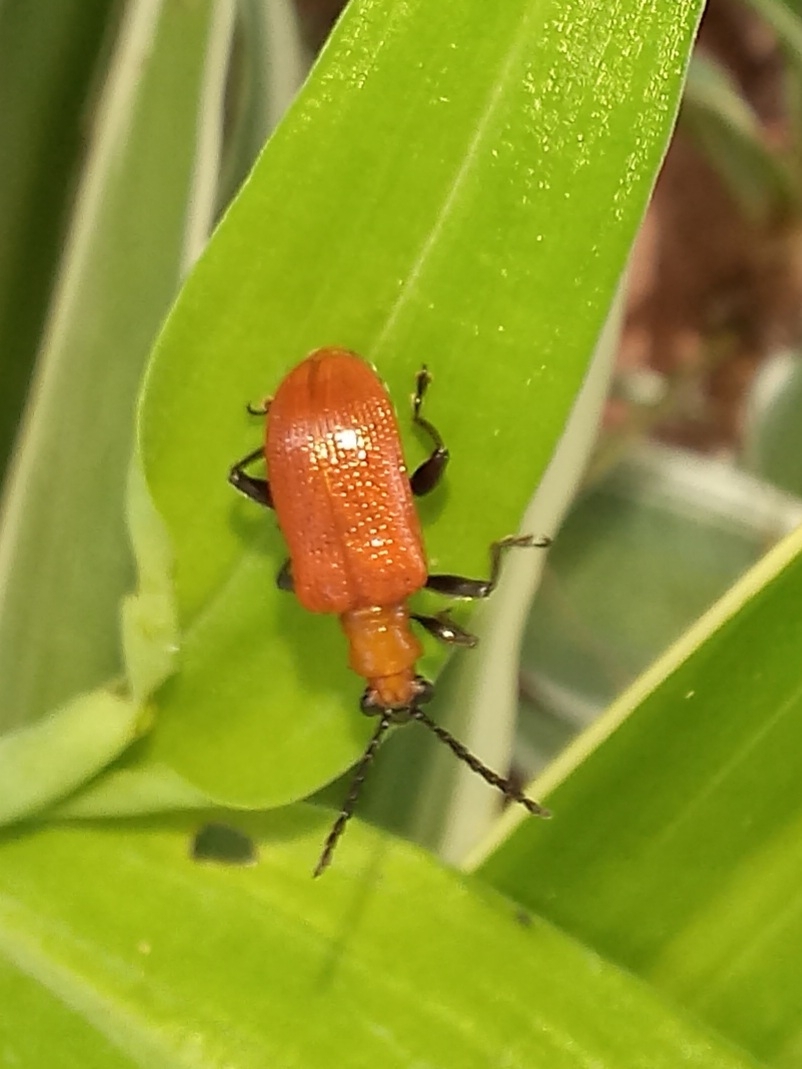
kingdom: Animalia
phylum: Arthropoda
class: Insecta
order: Coleoptera
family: Chrysomelidae
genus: Lema
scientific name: Lema
